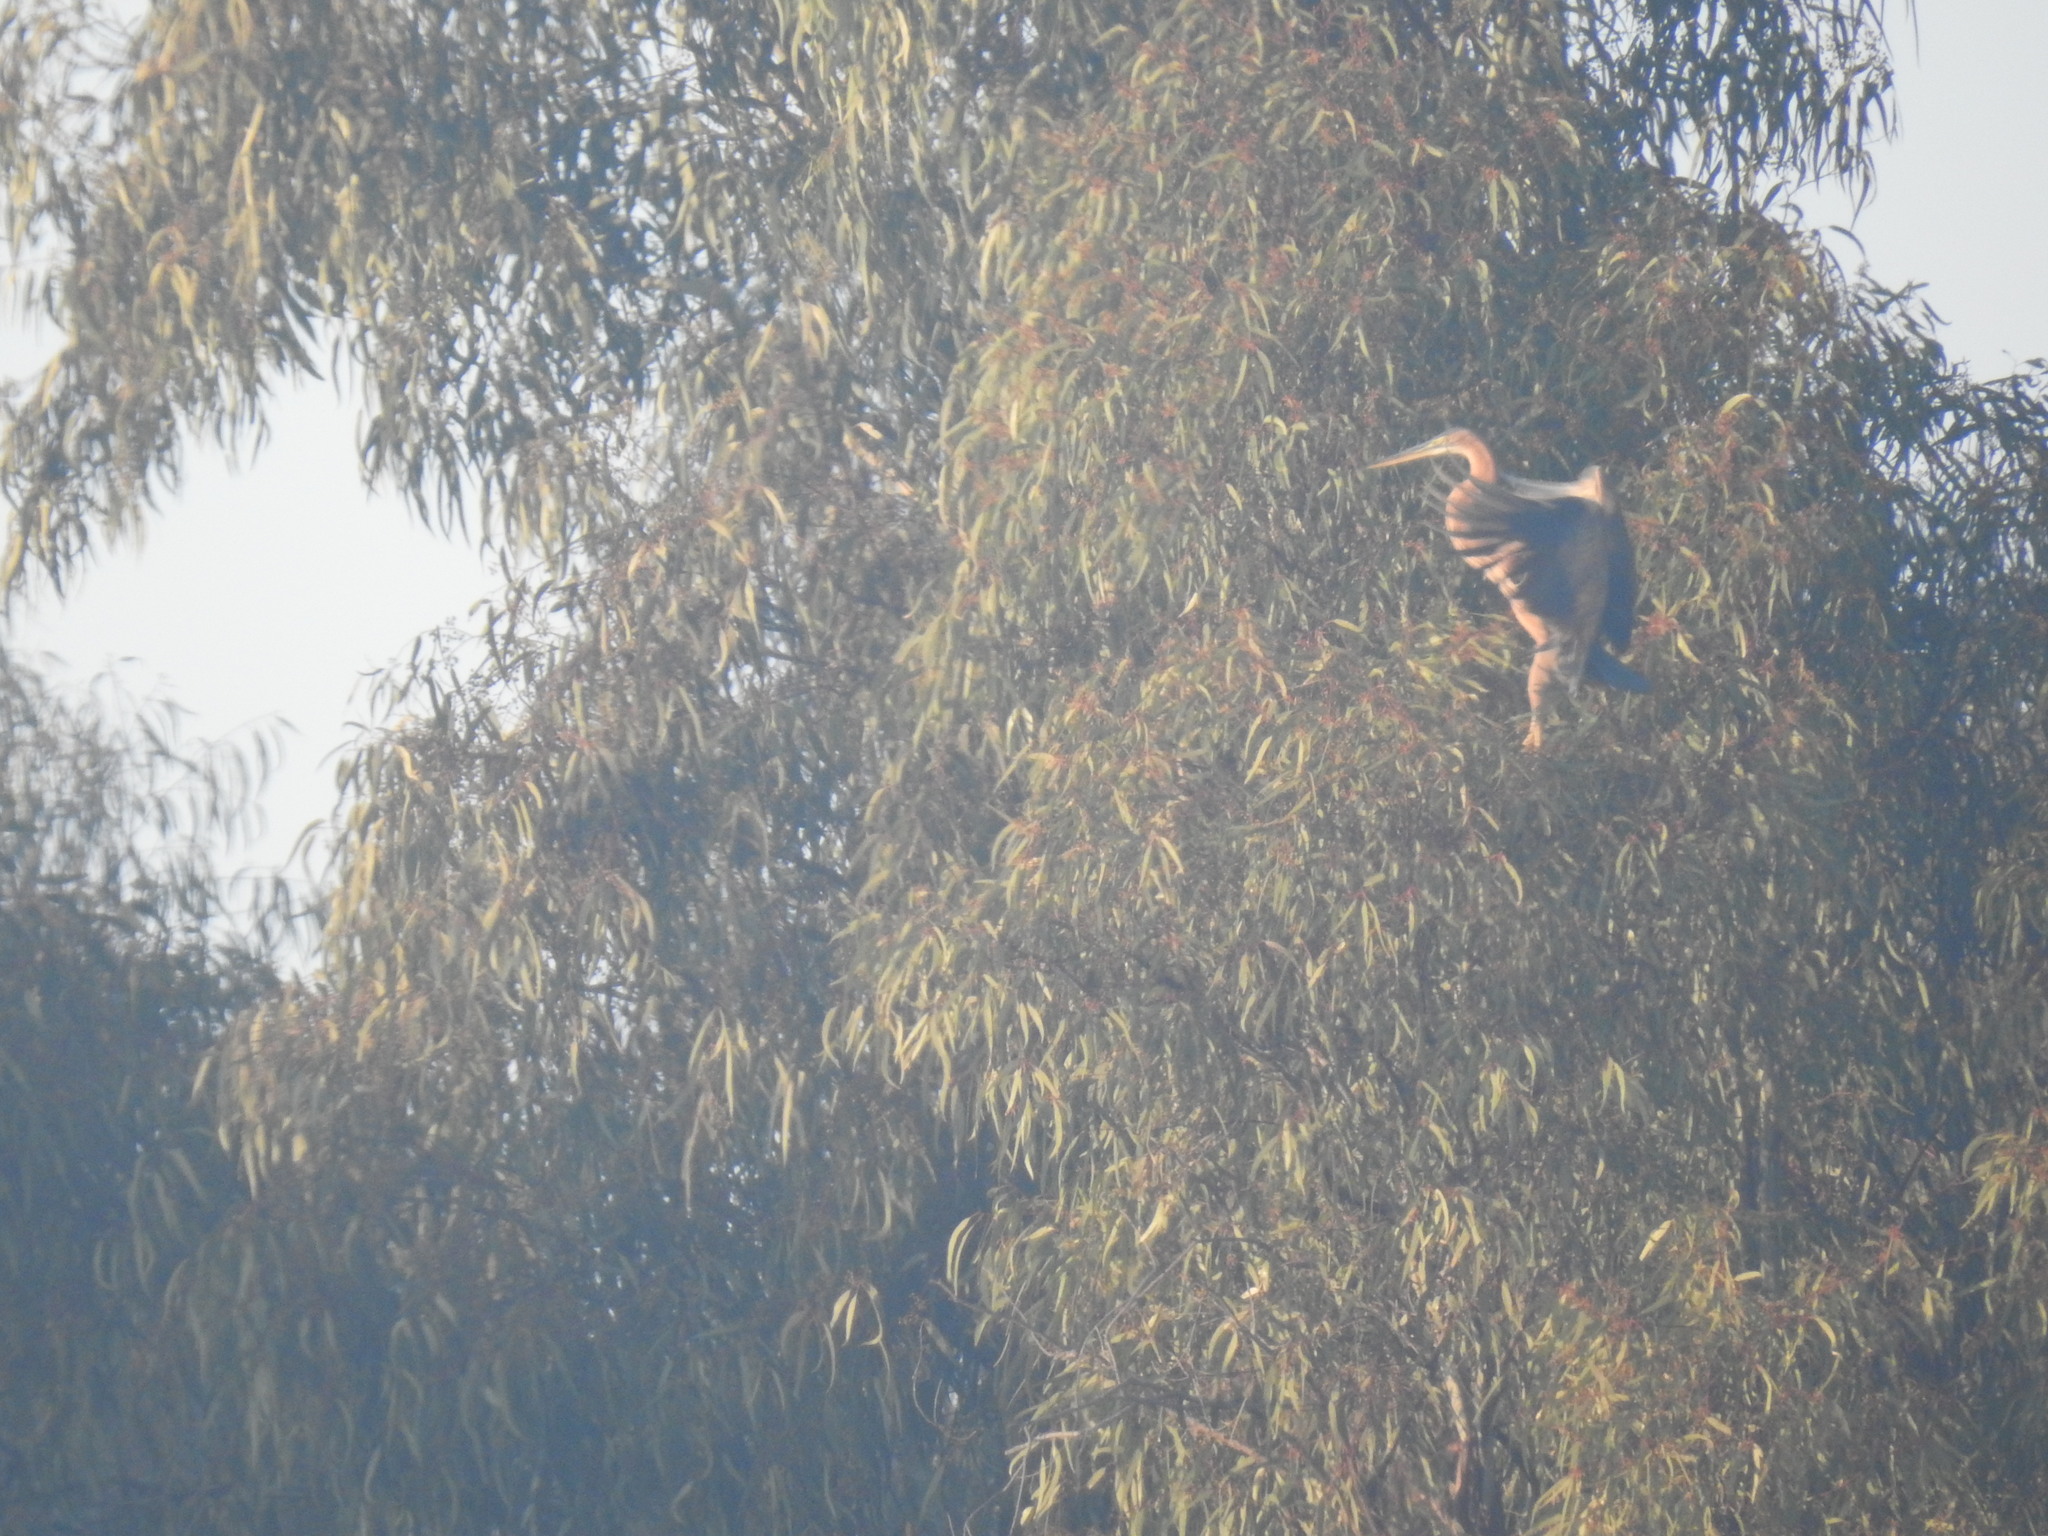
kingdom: Animalia
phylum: Chordata
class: Aves
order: Pelecaniformes
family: Ardeidae
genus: Ardea
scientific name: Ardea purpurea
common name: Purple heron
